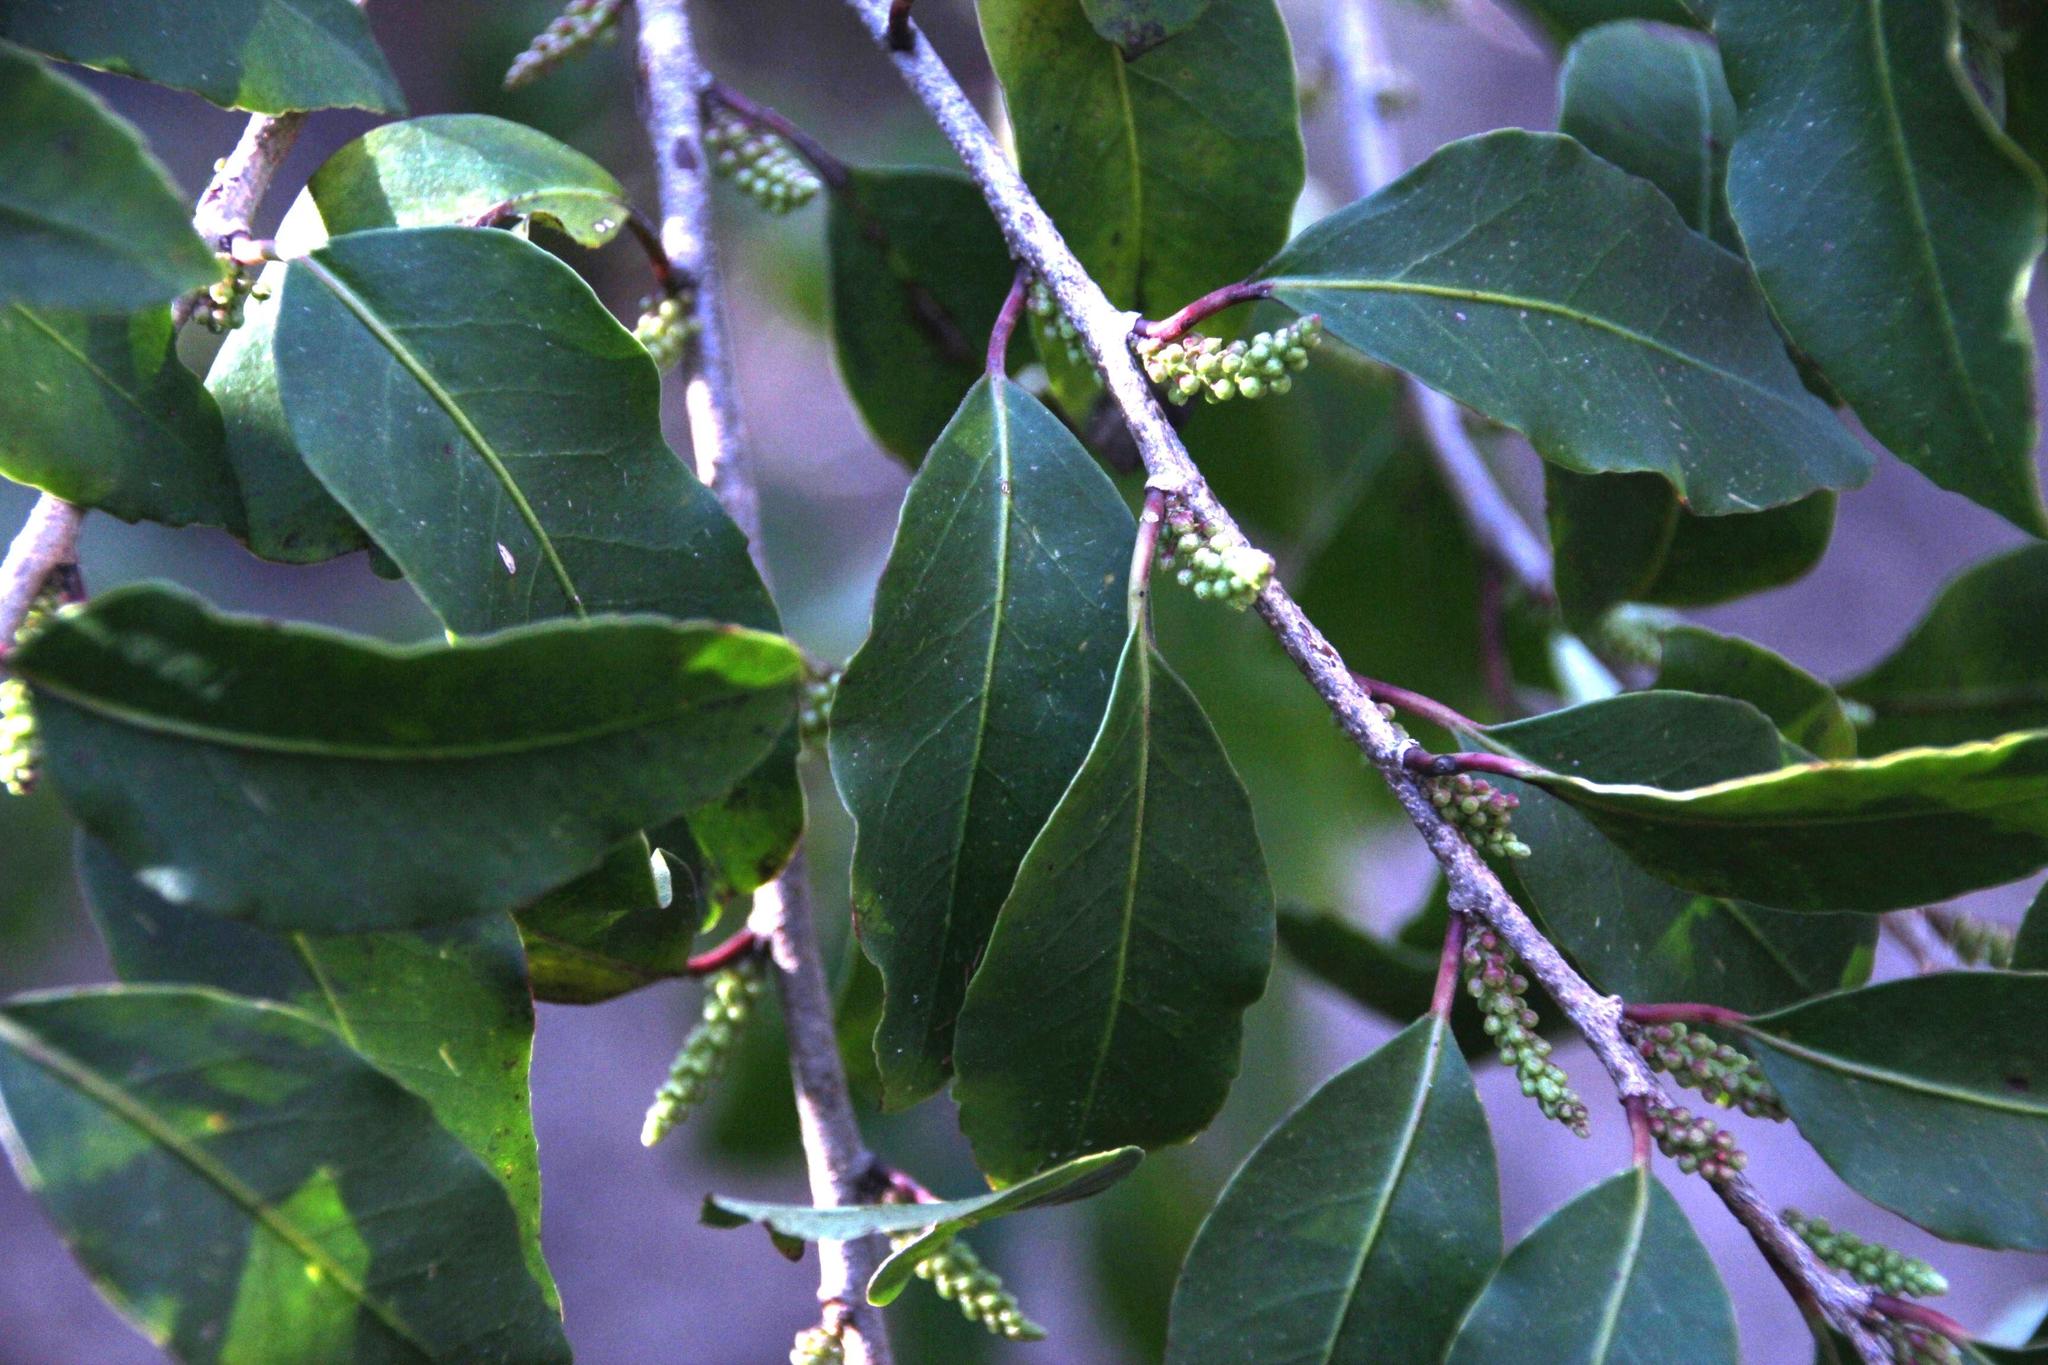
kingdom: Plantae
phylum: Tracheophyta
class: Magnoliopsida
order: Malpighiales
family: Salicaceae
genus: Azara
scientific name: Azara integrifolia
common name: Goldspire
